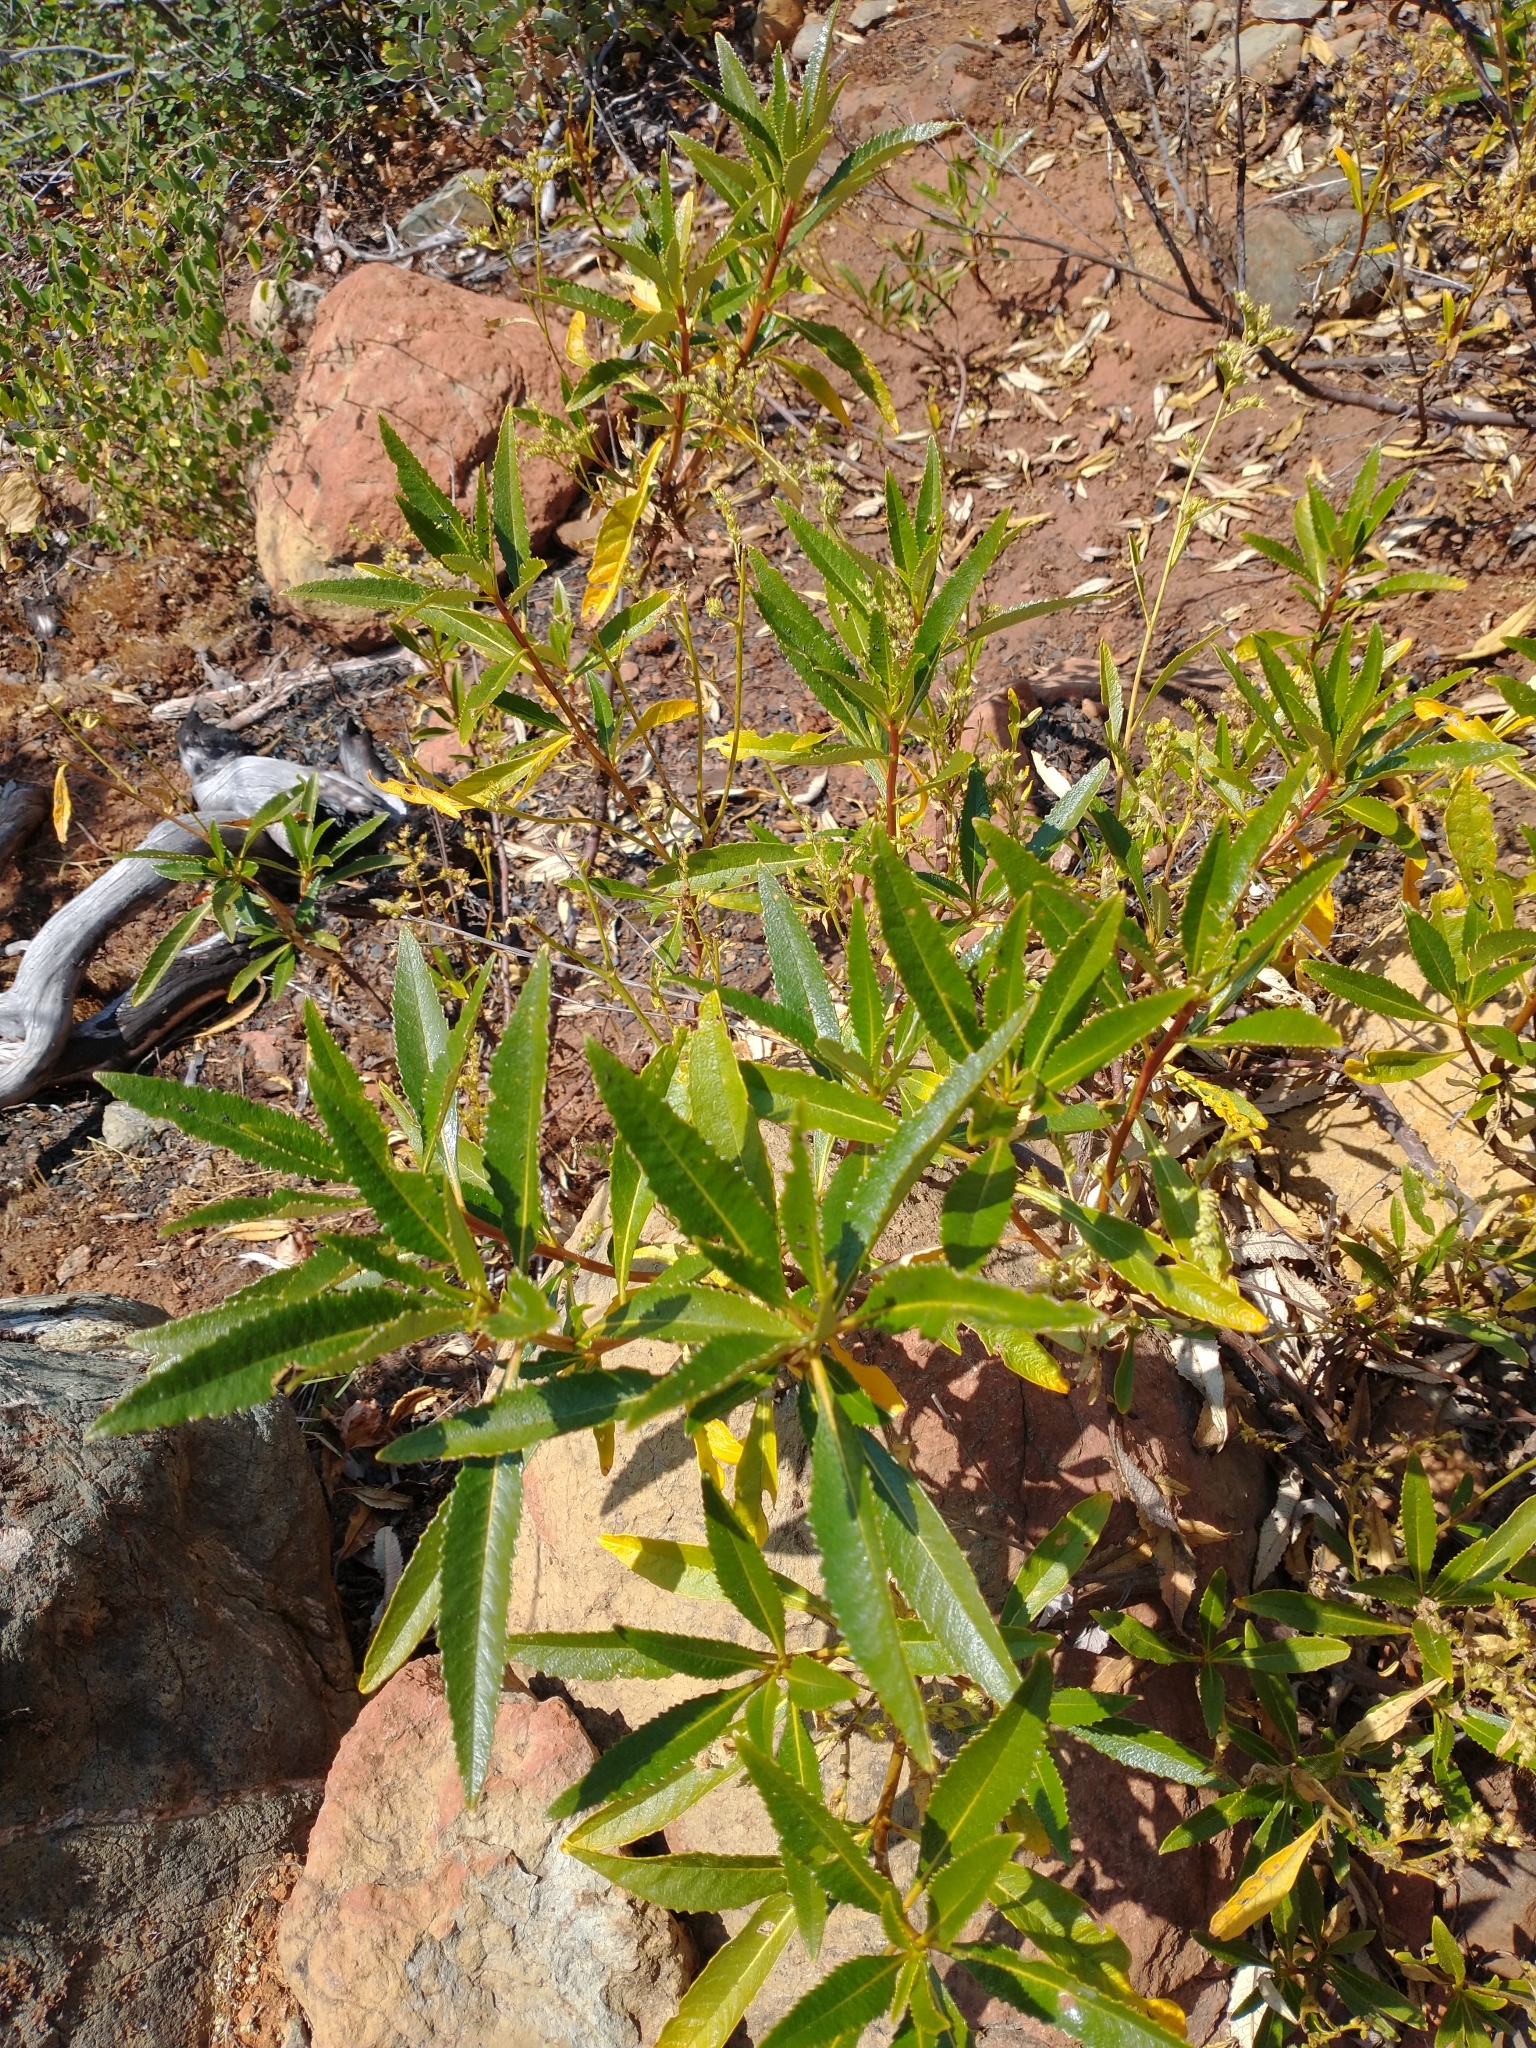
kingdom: Plantae
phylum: Tracheophyta
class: Magnoliopsida
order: Boraginales
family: Namaceae
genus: Eriodictyon
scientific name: Eriodictyon californicum
